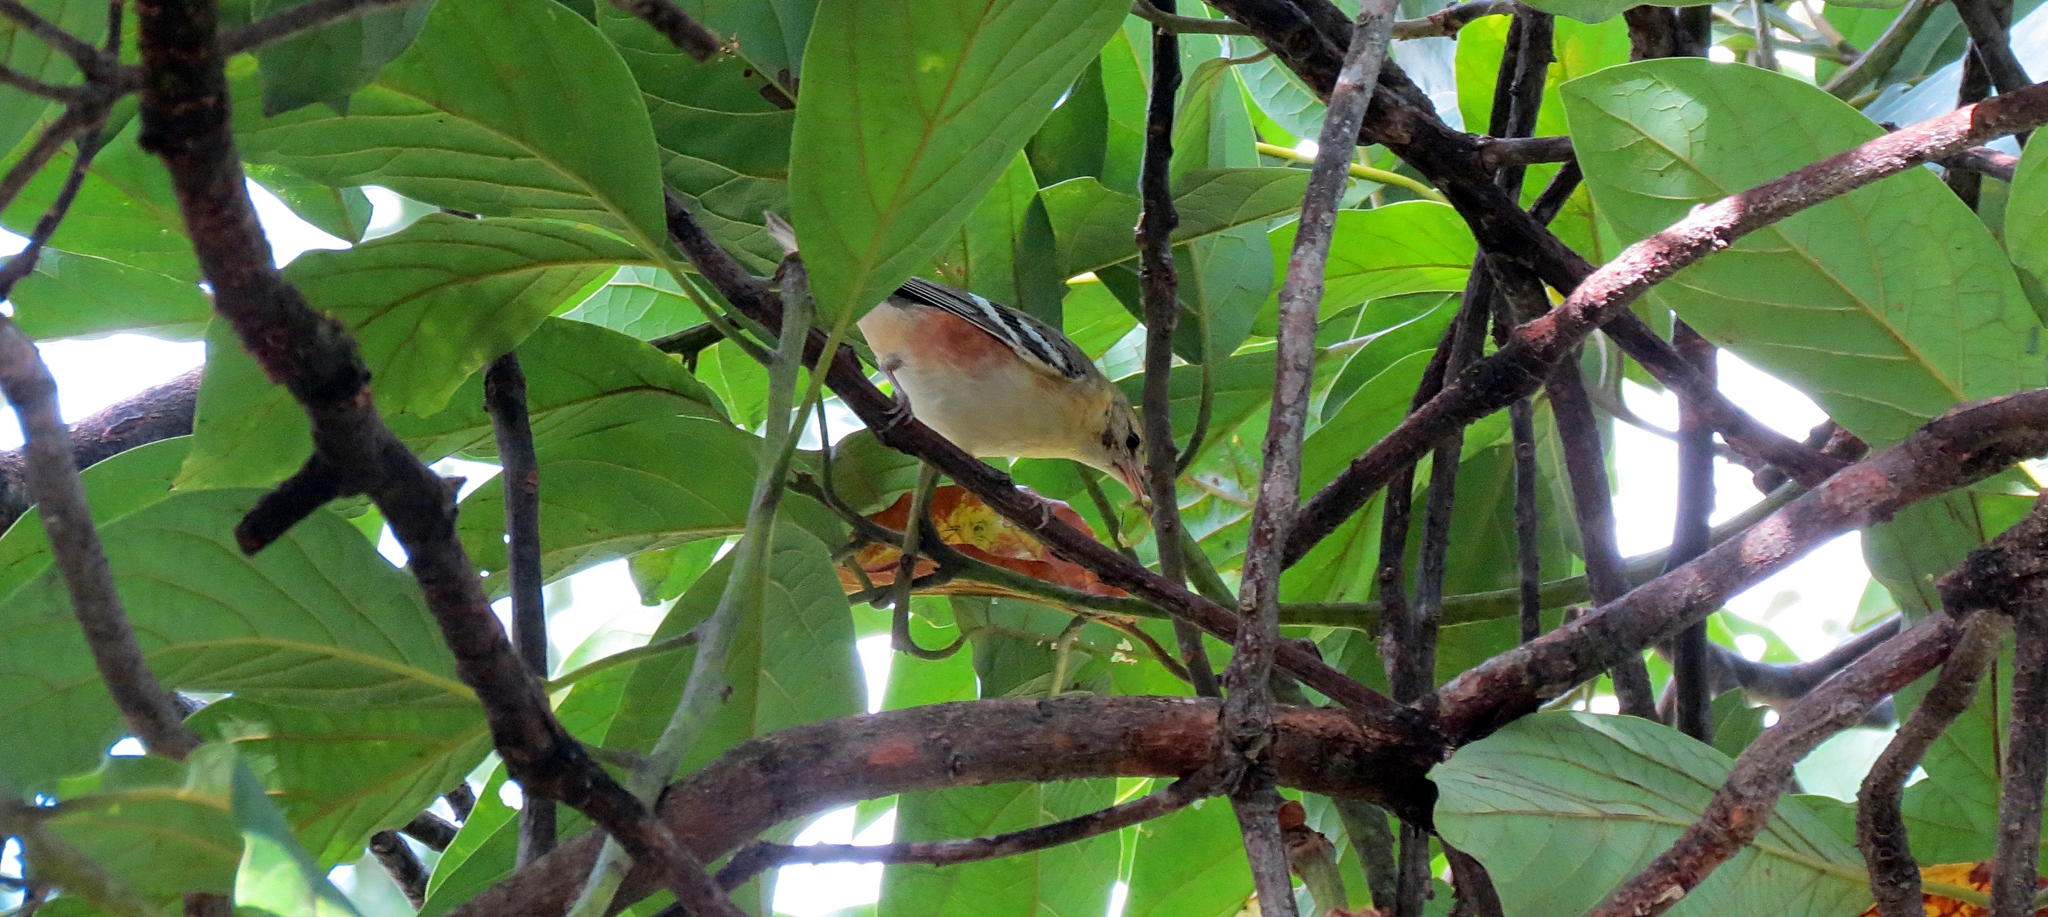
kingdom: Animalia
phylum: Chordata
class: Aves
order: Passeriformes
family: Parulidae
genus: Setophaga
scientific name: Setophaga castanea
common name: Bay-breasted warbler
